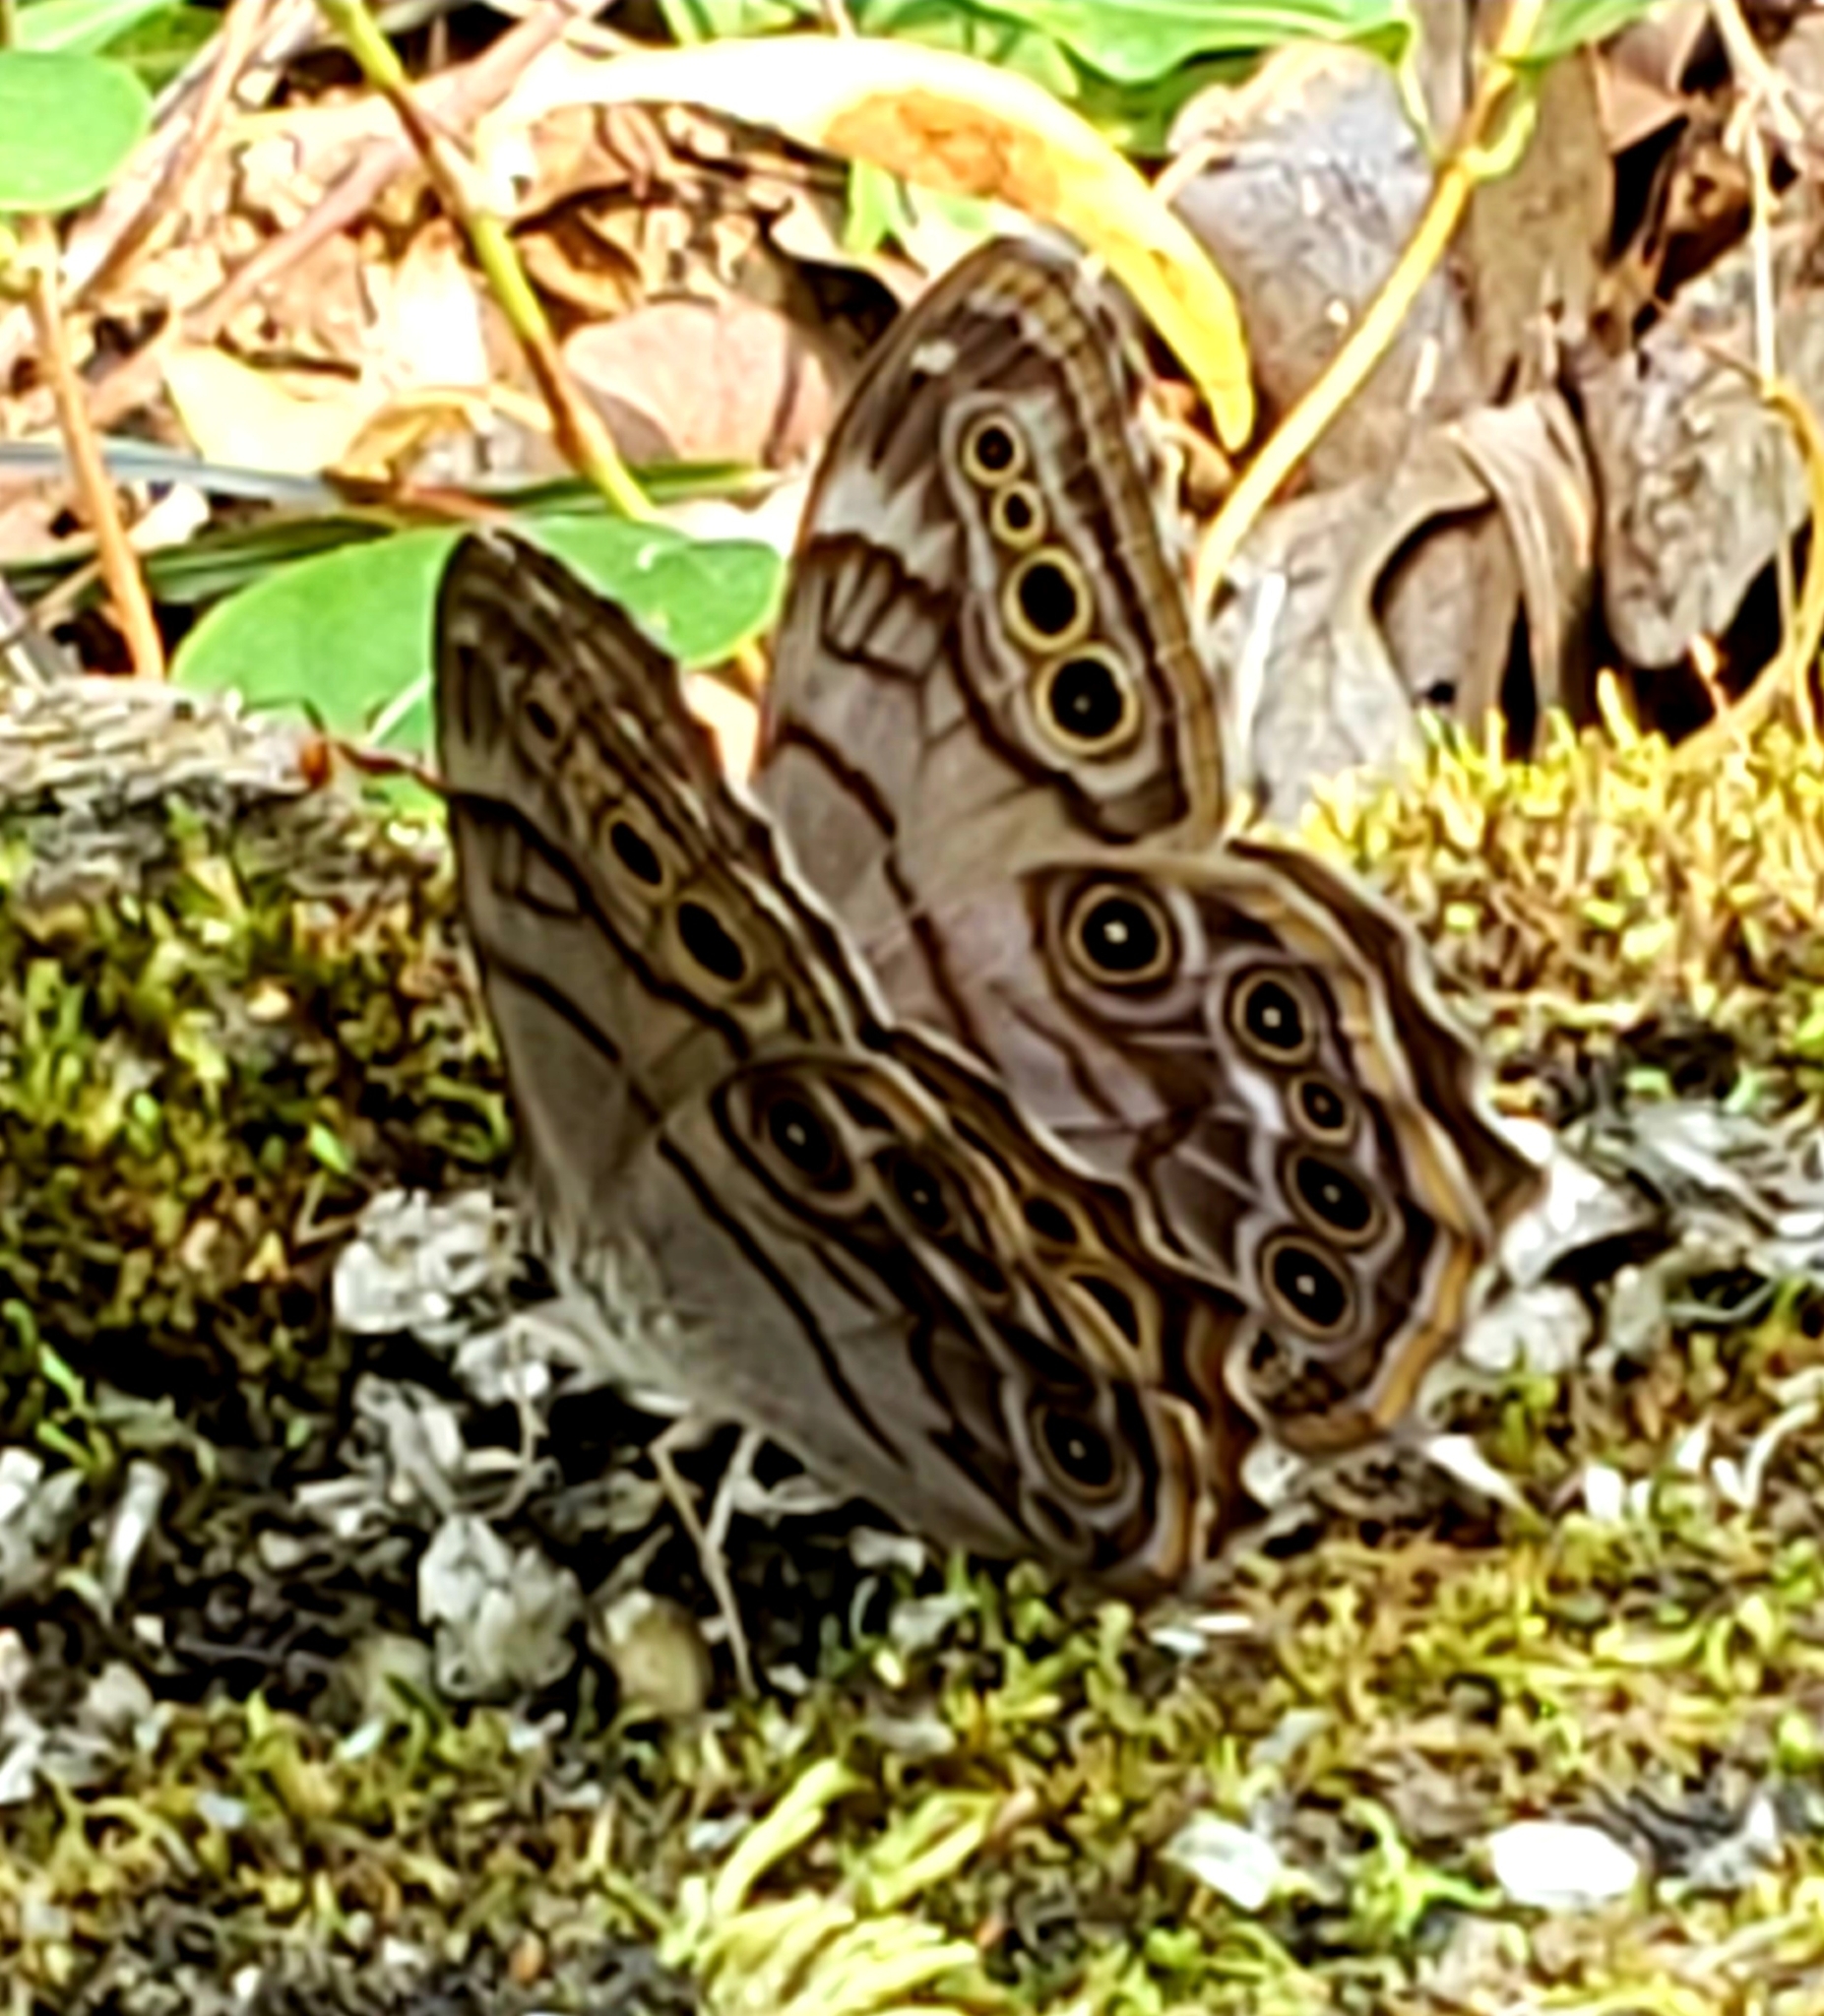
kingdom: Animalia
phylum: Arthropoda
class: Insecta
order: Lepidoptera
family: Nymphalidae
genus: Lethe
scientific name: Lethe anthedon
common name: Northern pearly-eye
